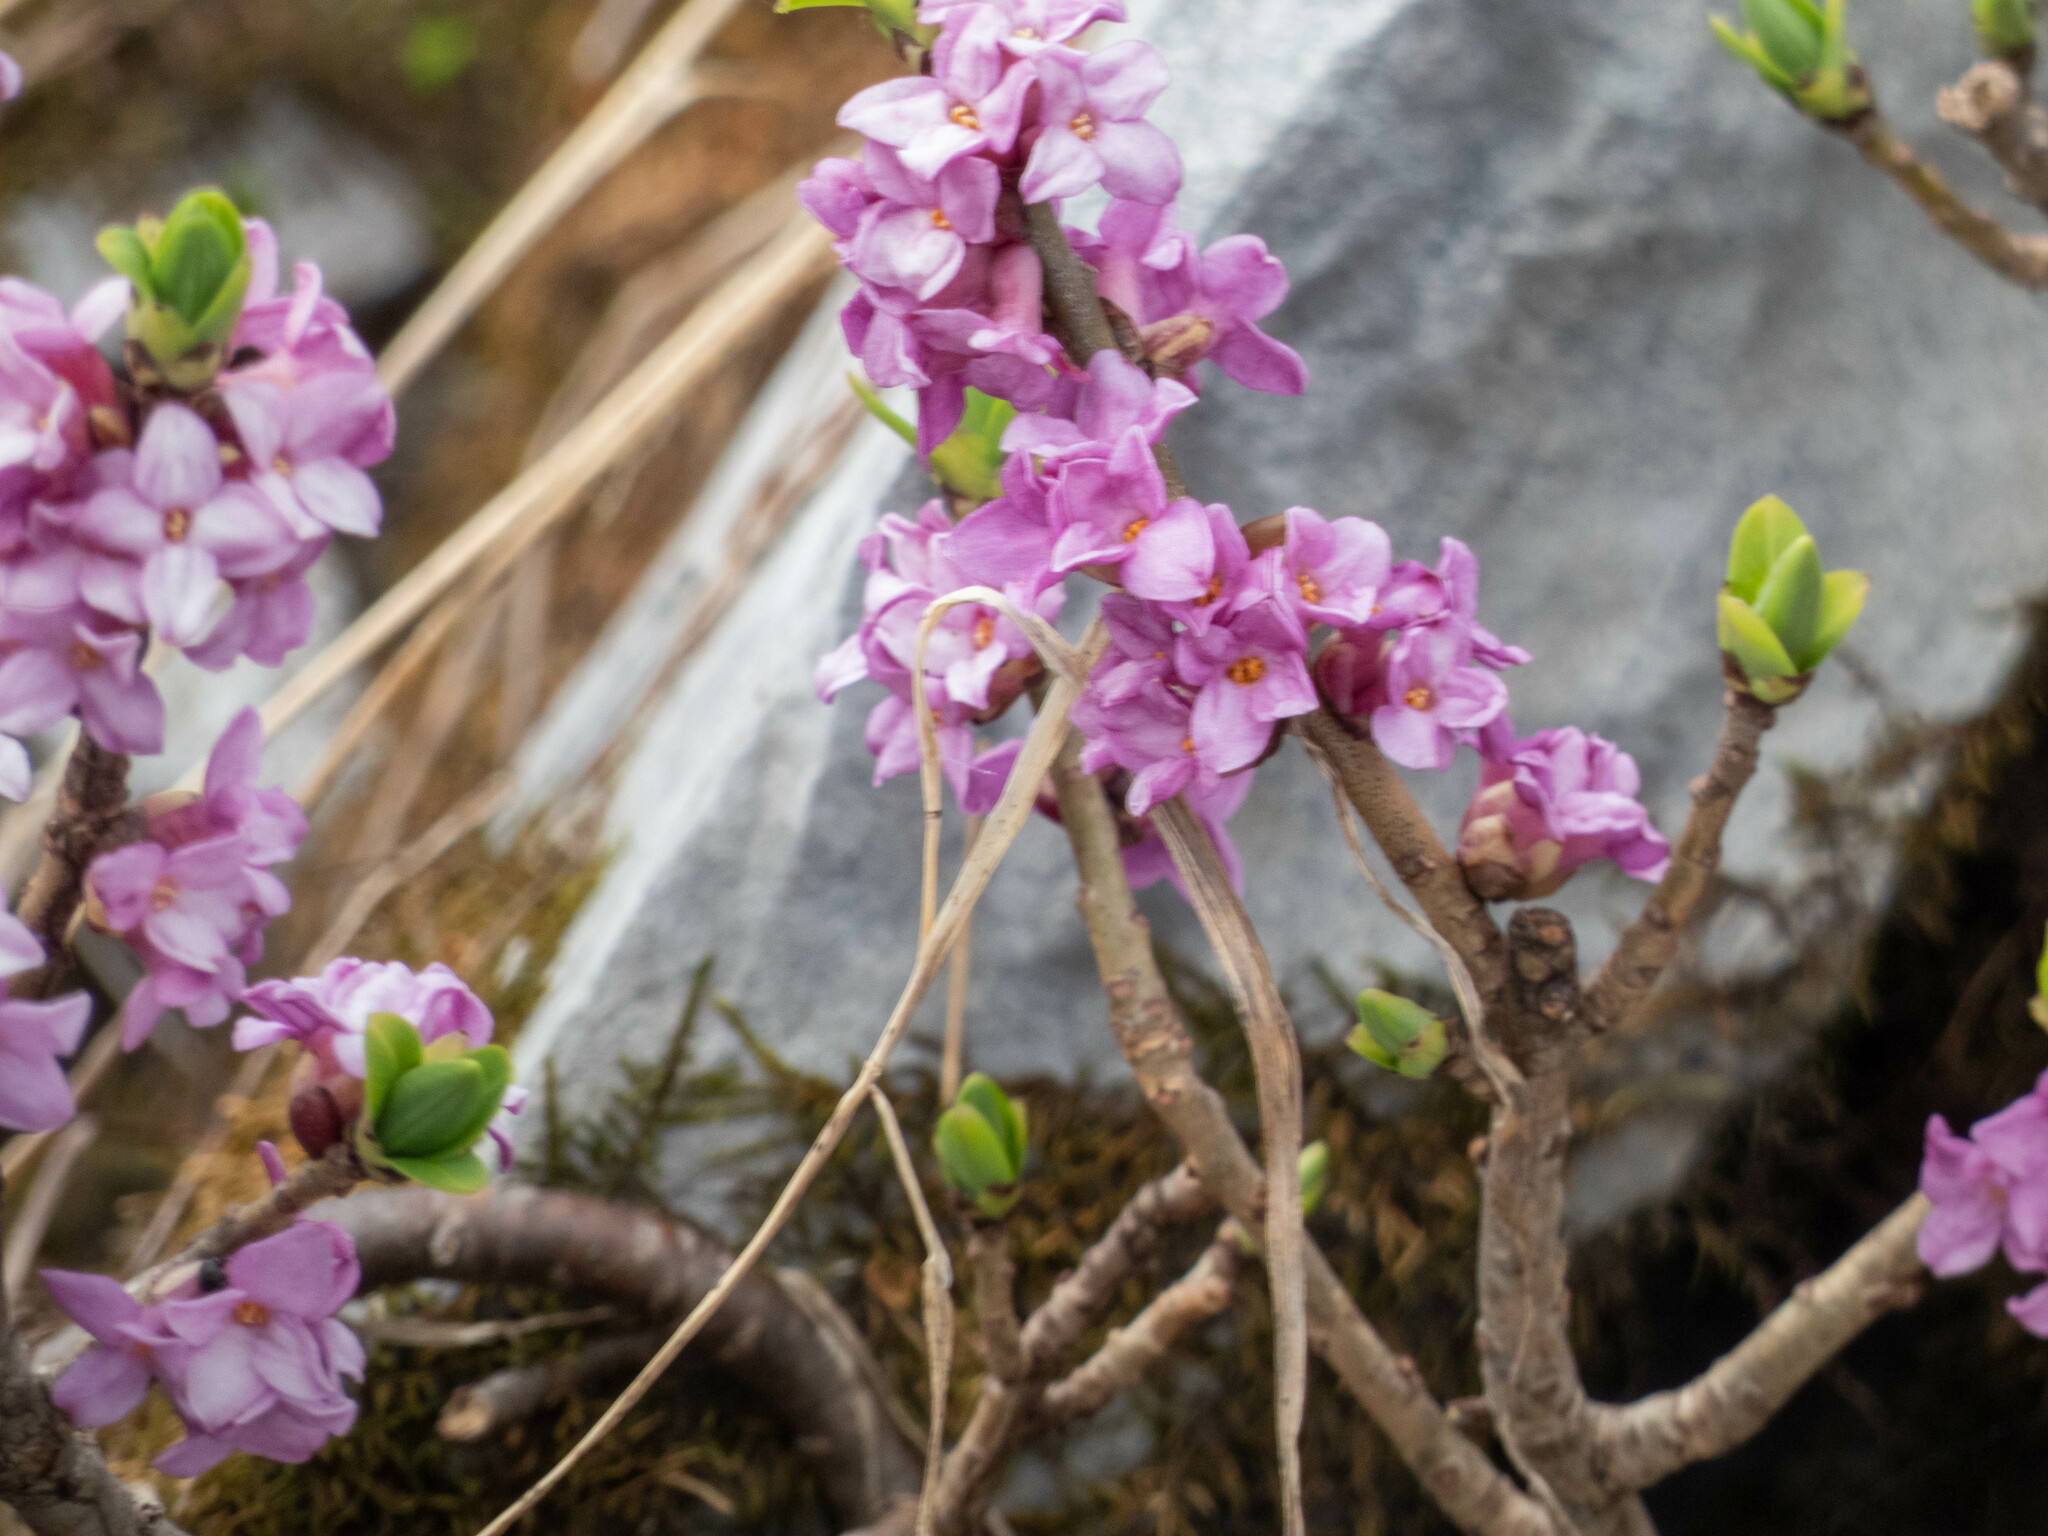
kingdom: Plantae
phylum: Tracheophyta
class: Magnoliopsida
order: Malvales
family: Thymelaeaceae
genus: Daphne
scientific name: Daphne mezereum
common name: Mezereon
